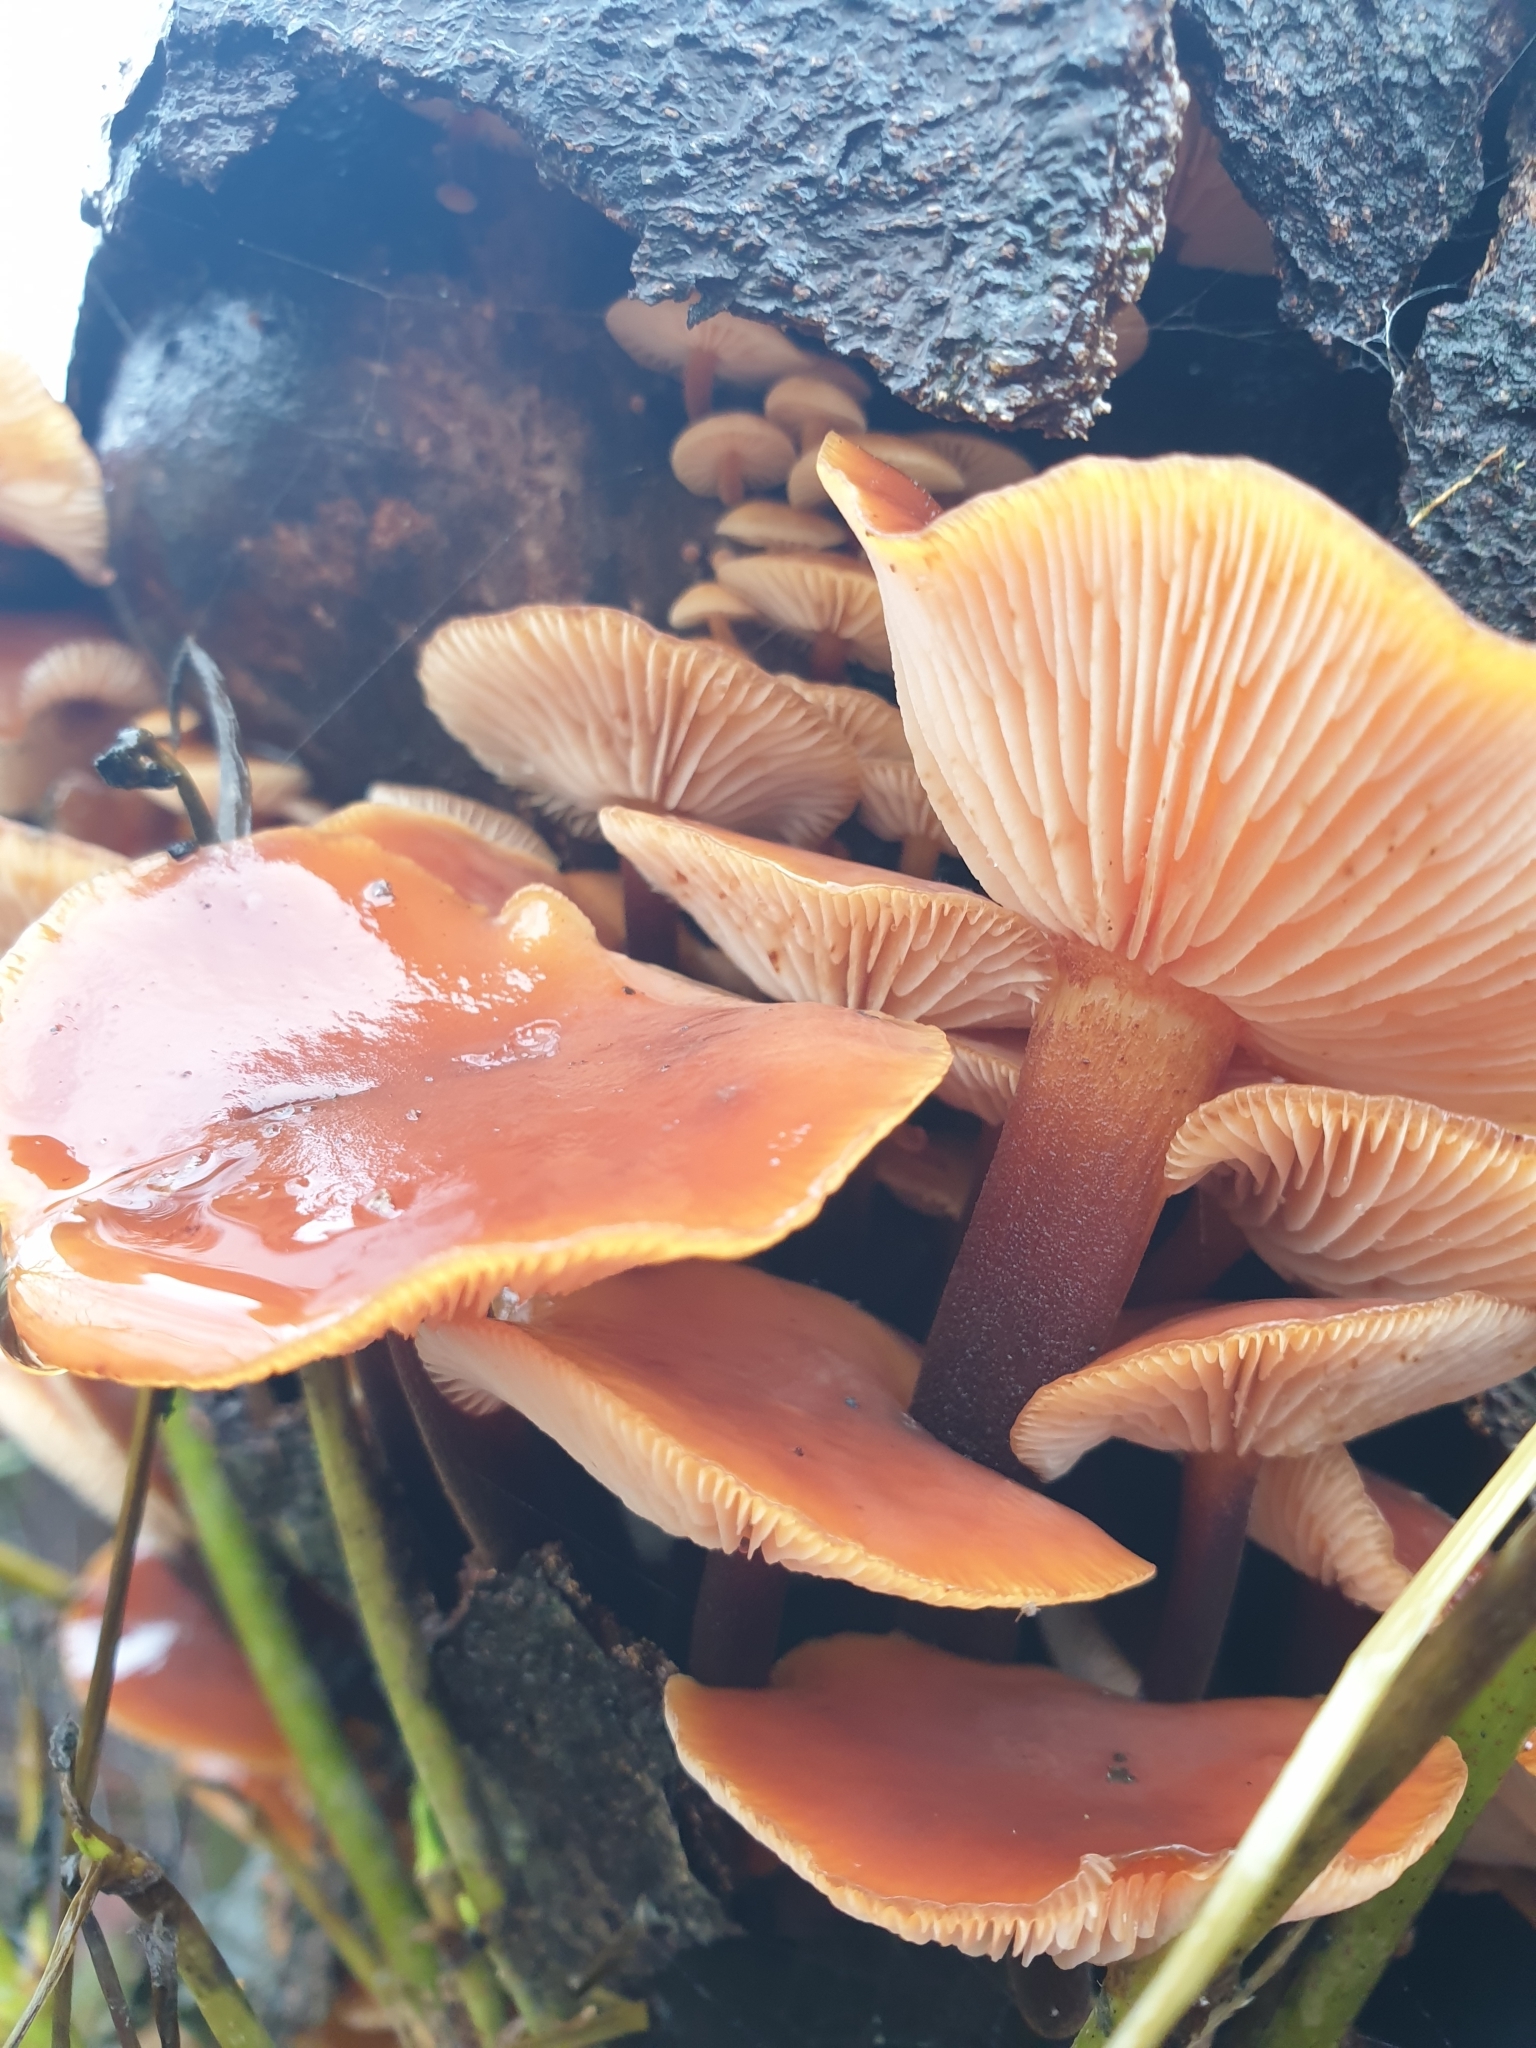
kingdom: Fungi
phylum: Basidiomycota
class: Agaricomycetes
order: Agaricales
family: Physalacriaceae
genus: Flammulina
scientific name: Flammulina
